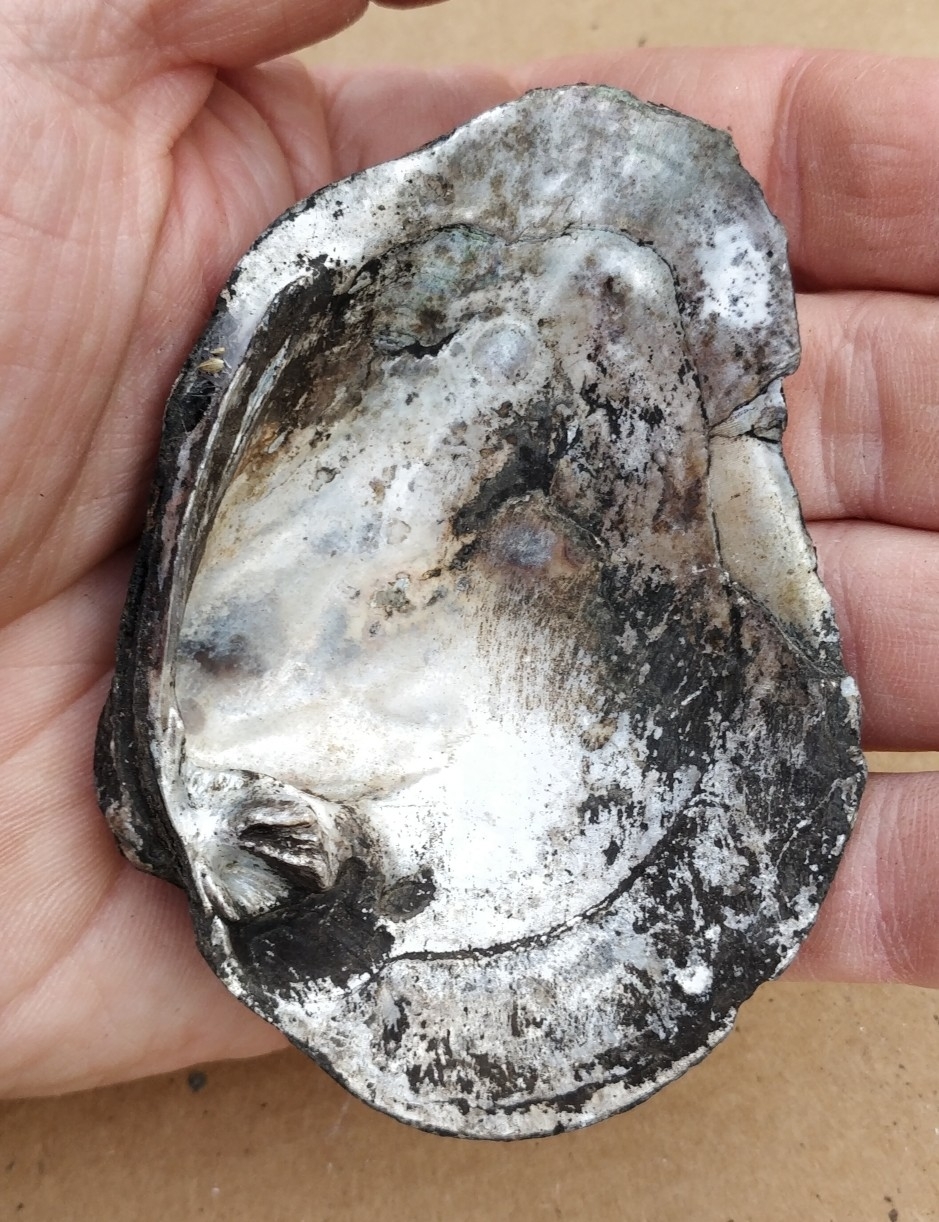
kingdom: Animalia
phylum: Mollusca
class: Bivalvia
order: Unionida
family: Unionidae
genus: Quadrula
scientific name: Quadrula quadrula
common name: Mapleleaf
